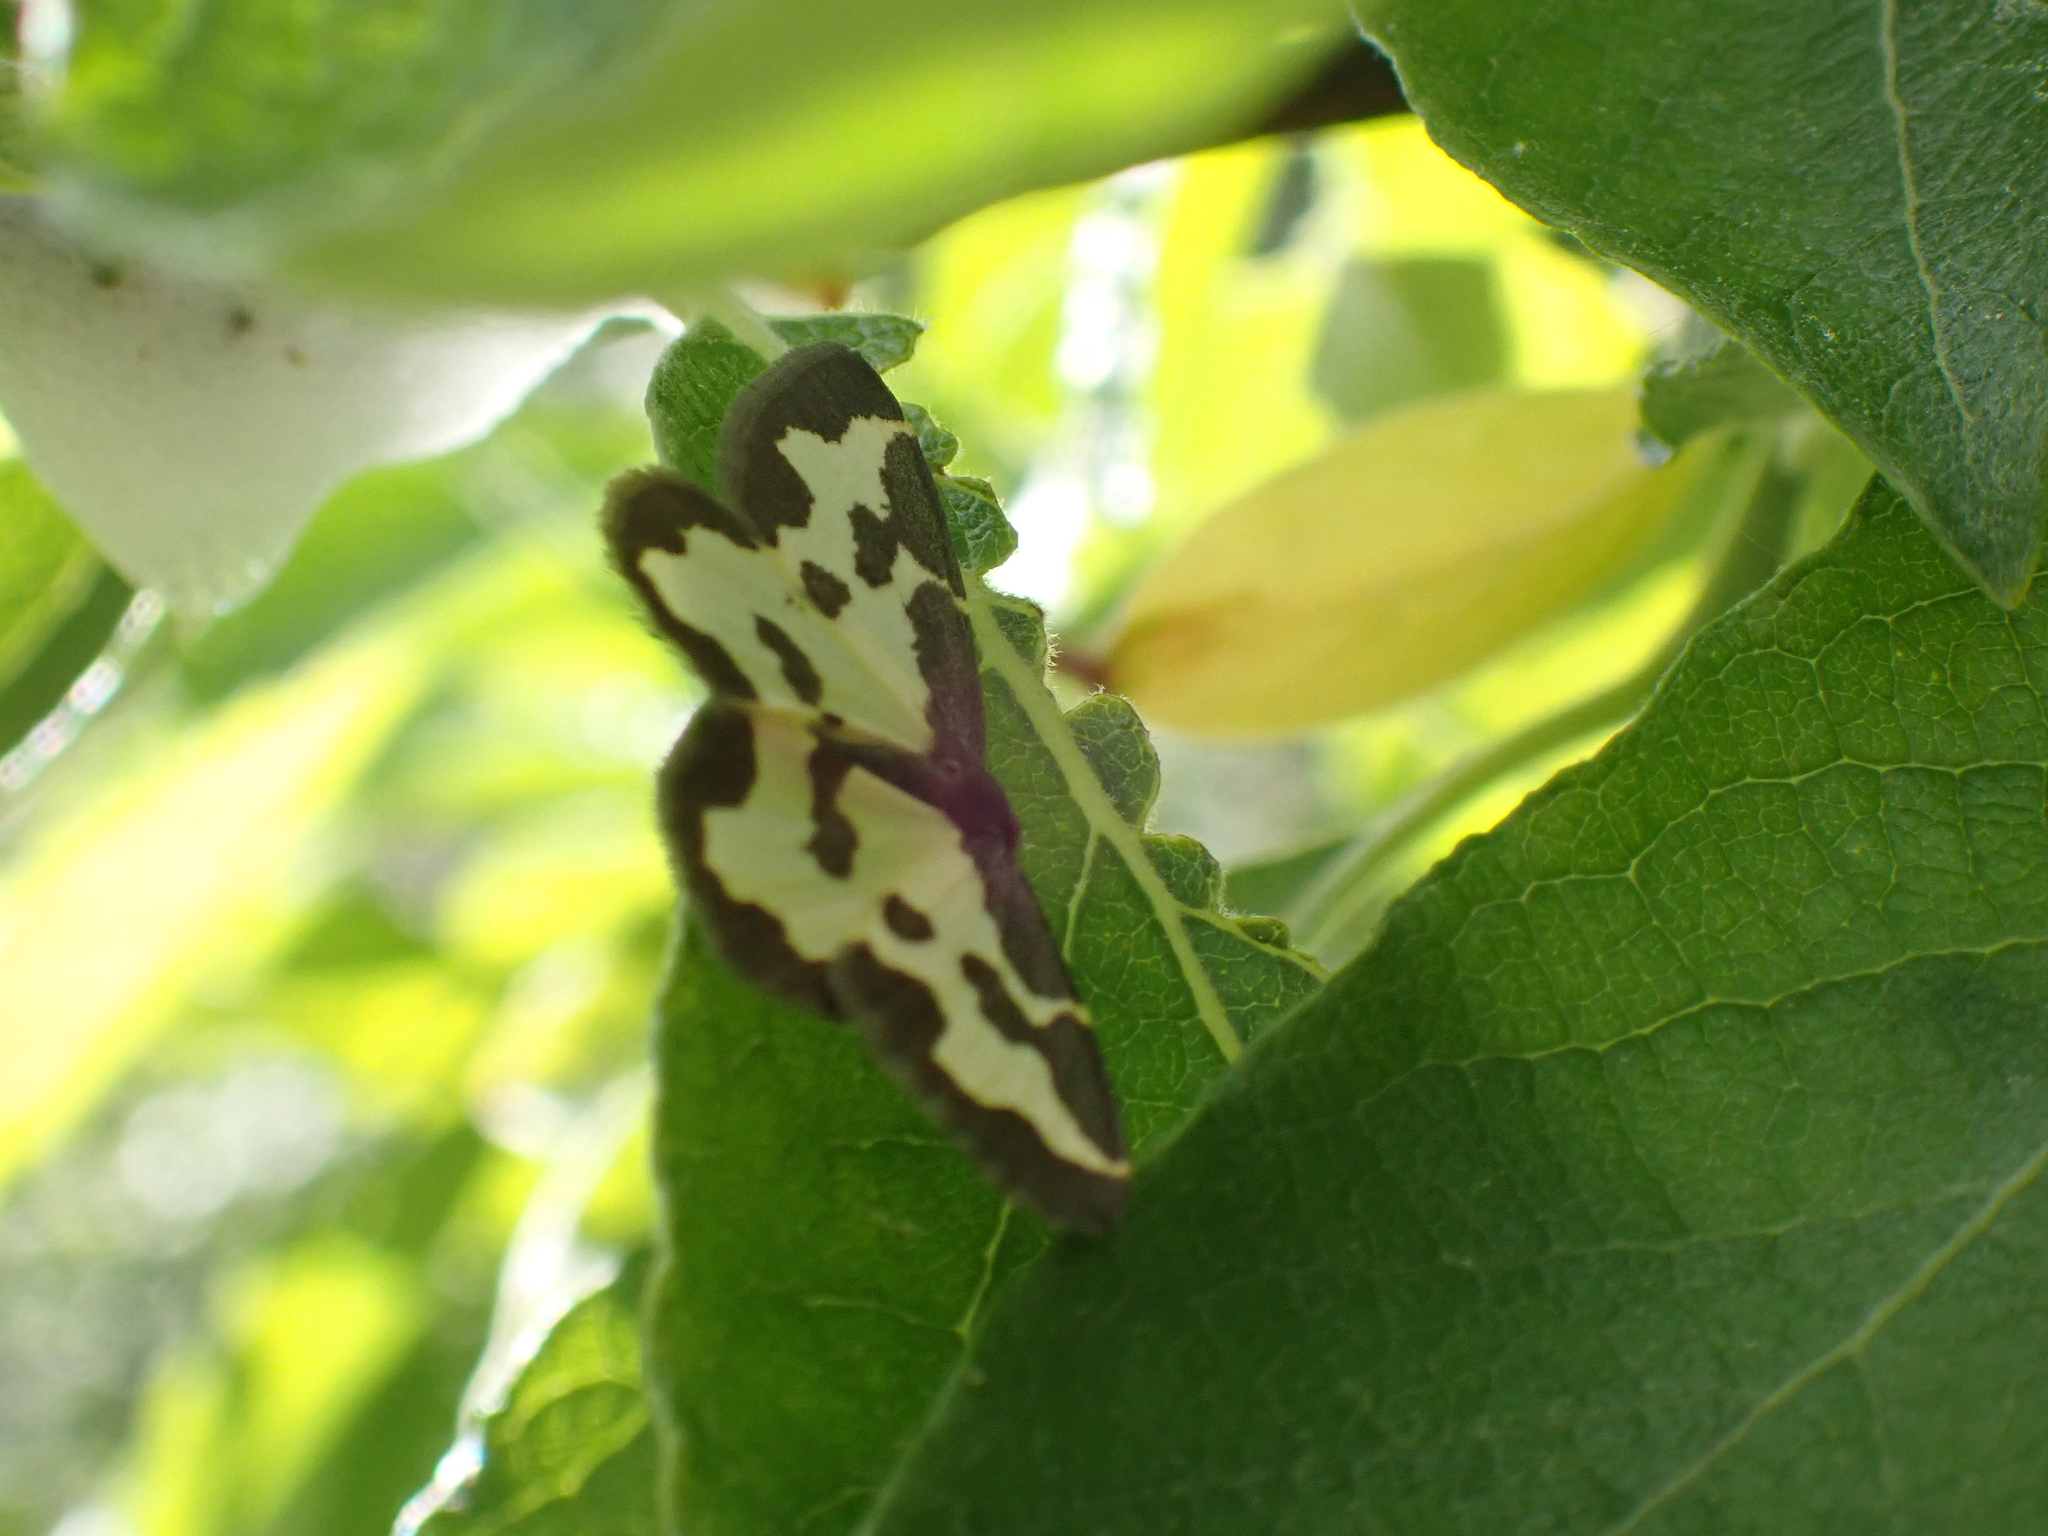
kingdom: Animalia
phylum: Arthropoda
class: Insecta
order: Lepidoptera
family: Geometridae
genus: Lomaspilis
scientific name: Lomaspilis marginata
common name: Clouded border
